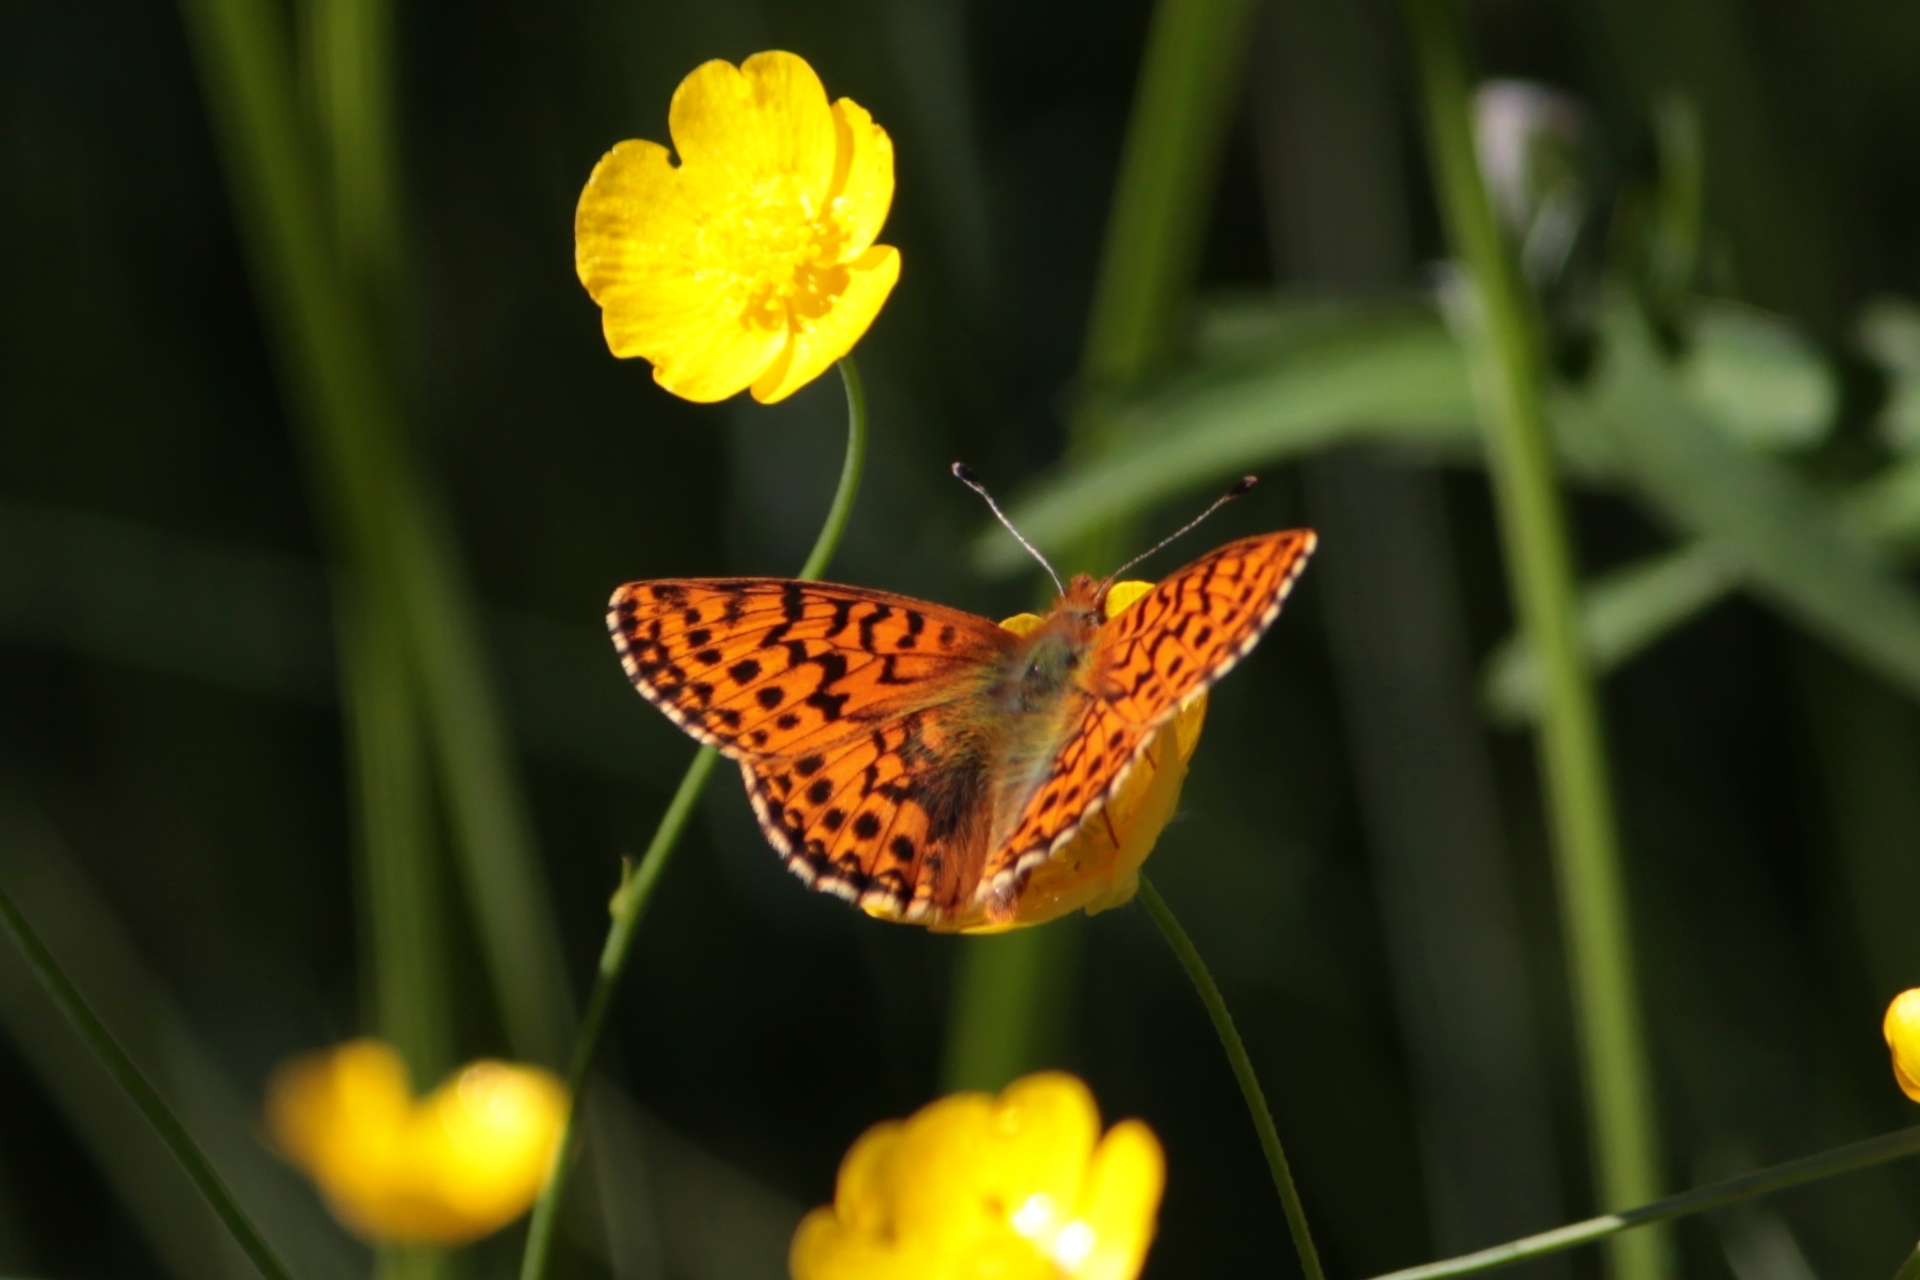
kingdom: Animalia
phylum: Arthropoda
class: Insecta
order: Lepidoptera
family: Nymphalidae
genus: Boloria
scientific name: Boloria aquilonaris
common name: Cranberry fritillary
